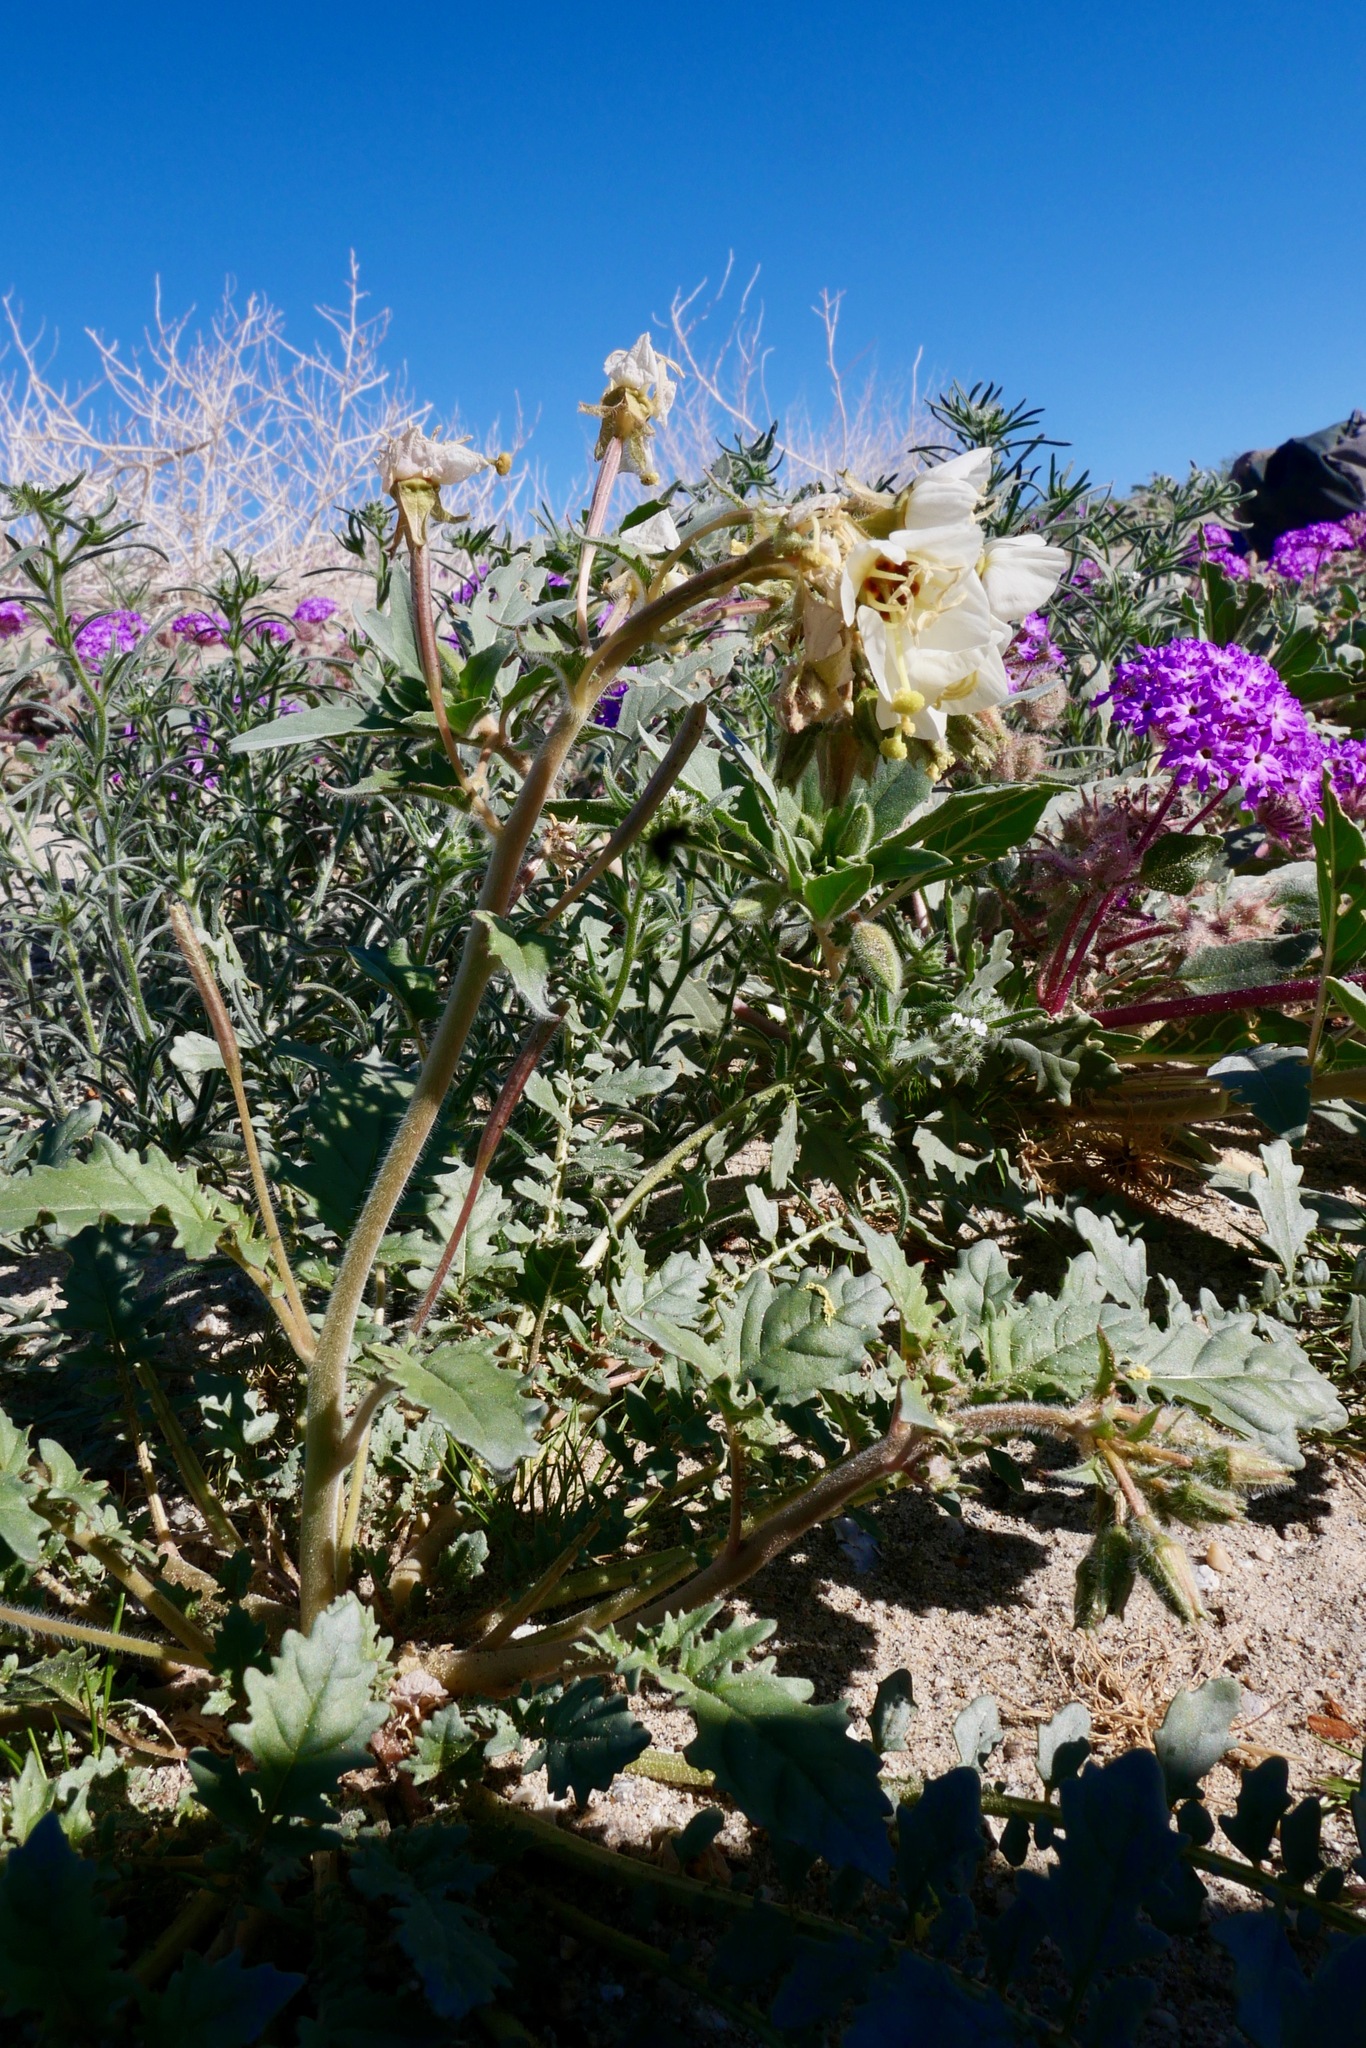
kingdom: Plantae
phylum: Tracheophyta
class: Magnoliopsida
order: Myrtales
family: Onagraceae
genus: Chylismia
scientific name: Chylismia claviformis
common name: Browneyes
